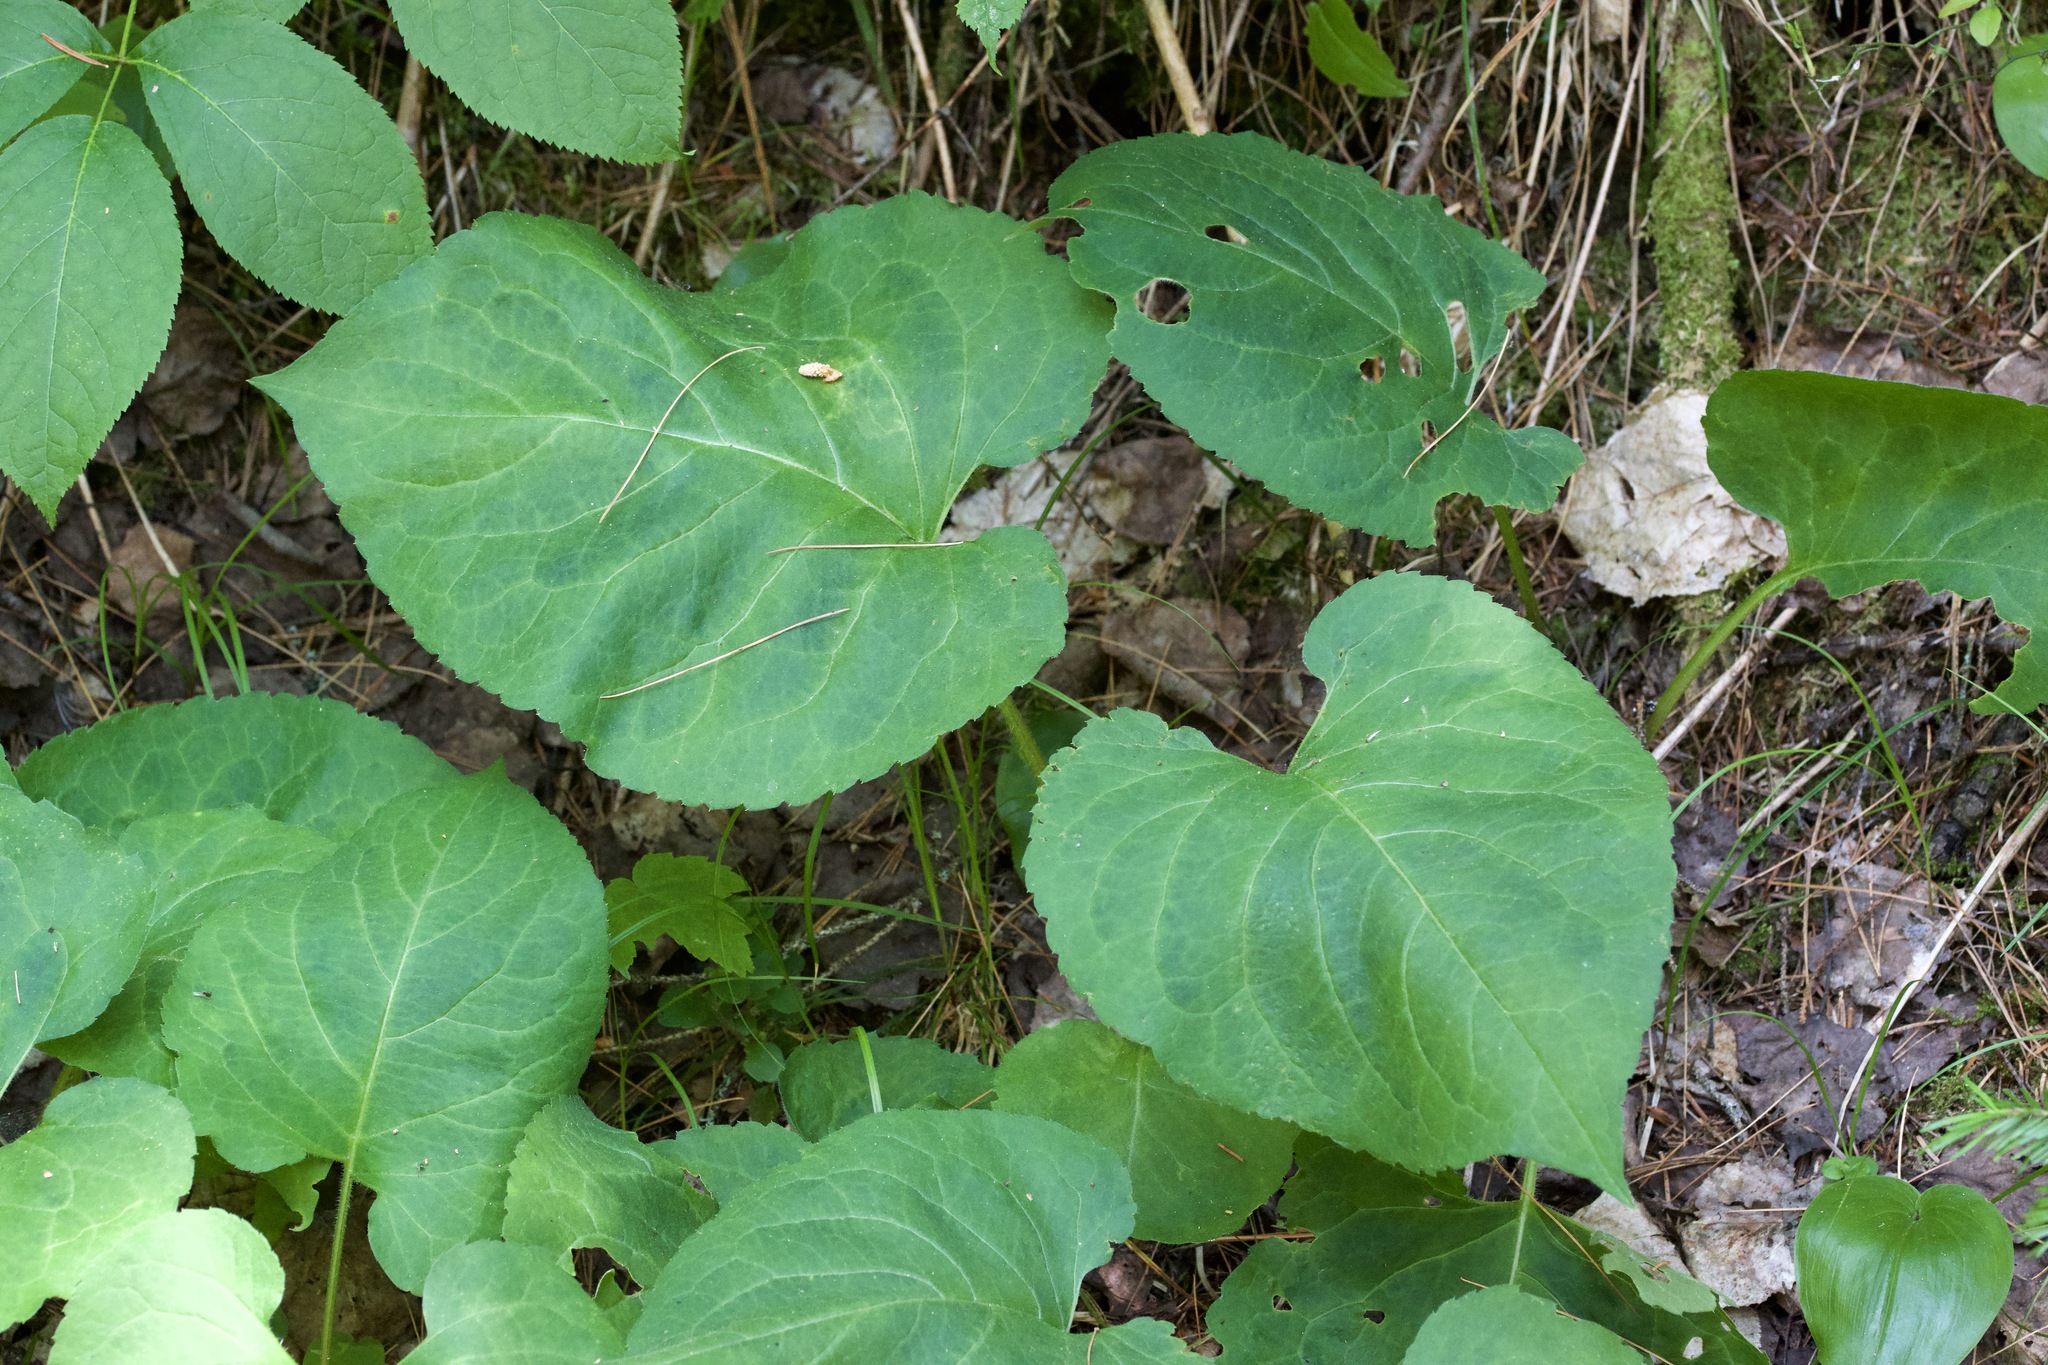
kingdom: Plantae
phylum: Tracheophyta
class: Magnoliopsida
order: Asterales
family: Asteraceae
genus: Eurybia
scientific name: Eurybia macrophylla
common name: Big-leaved aster
